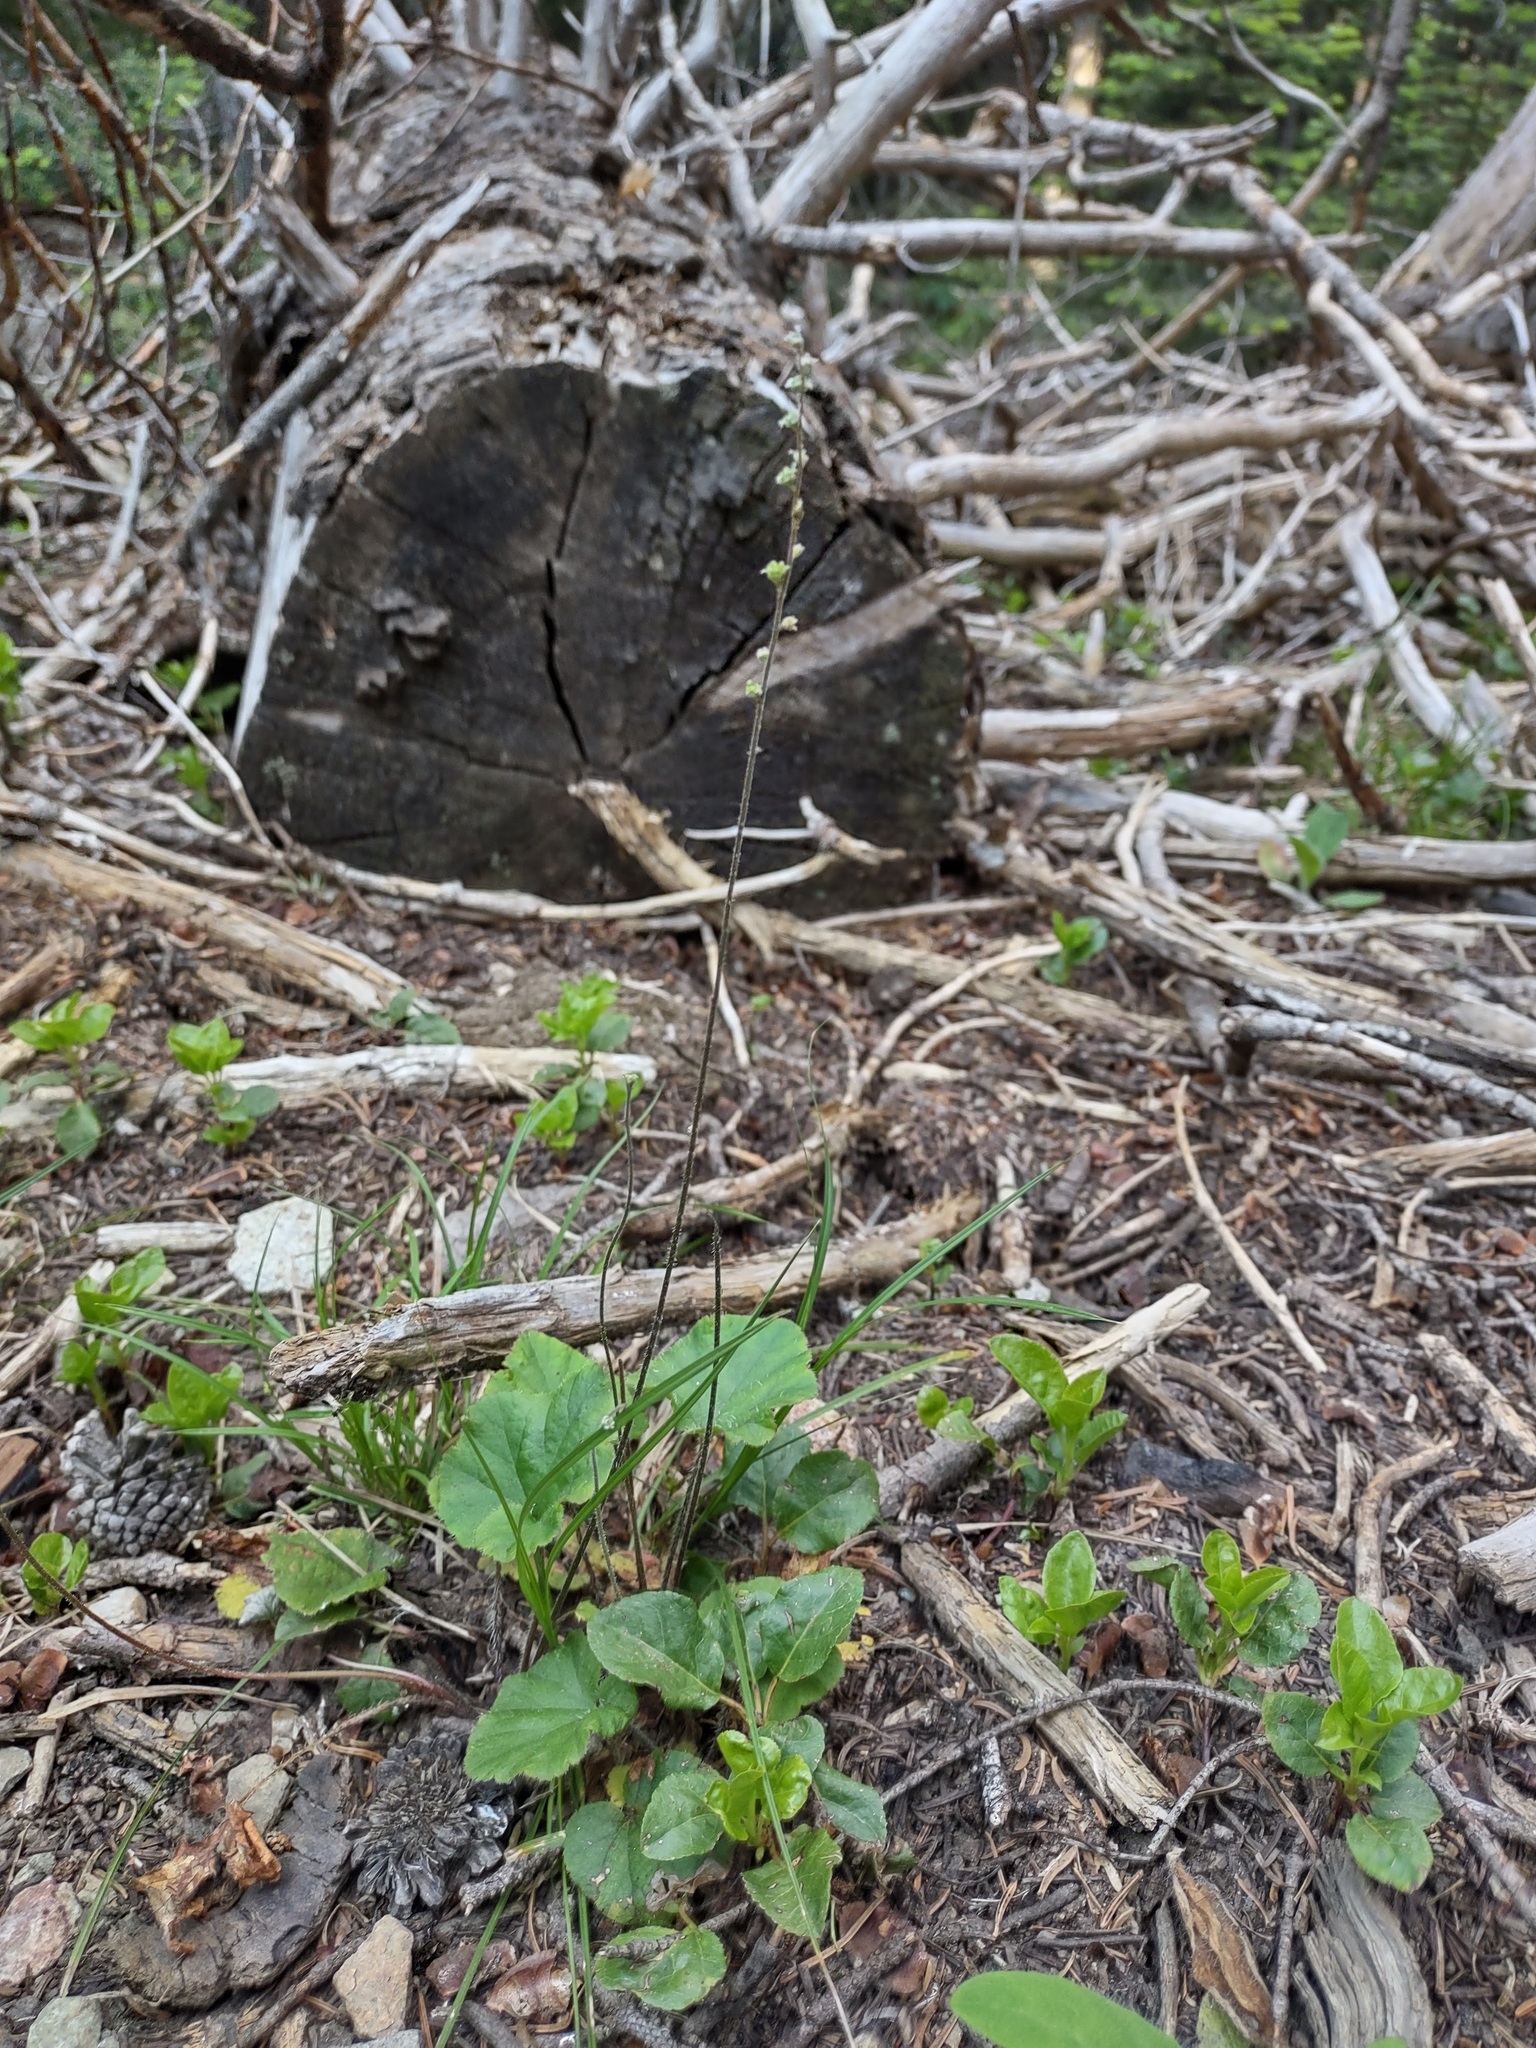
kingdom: Plantae
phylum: Tracheophyta
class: Magnoliopsida
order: Saxifragales
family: Saxifragaceae
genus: Ozomelis
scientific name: Ozomelis trifida
